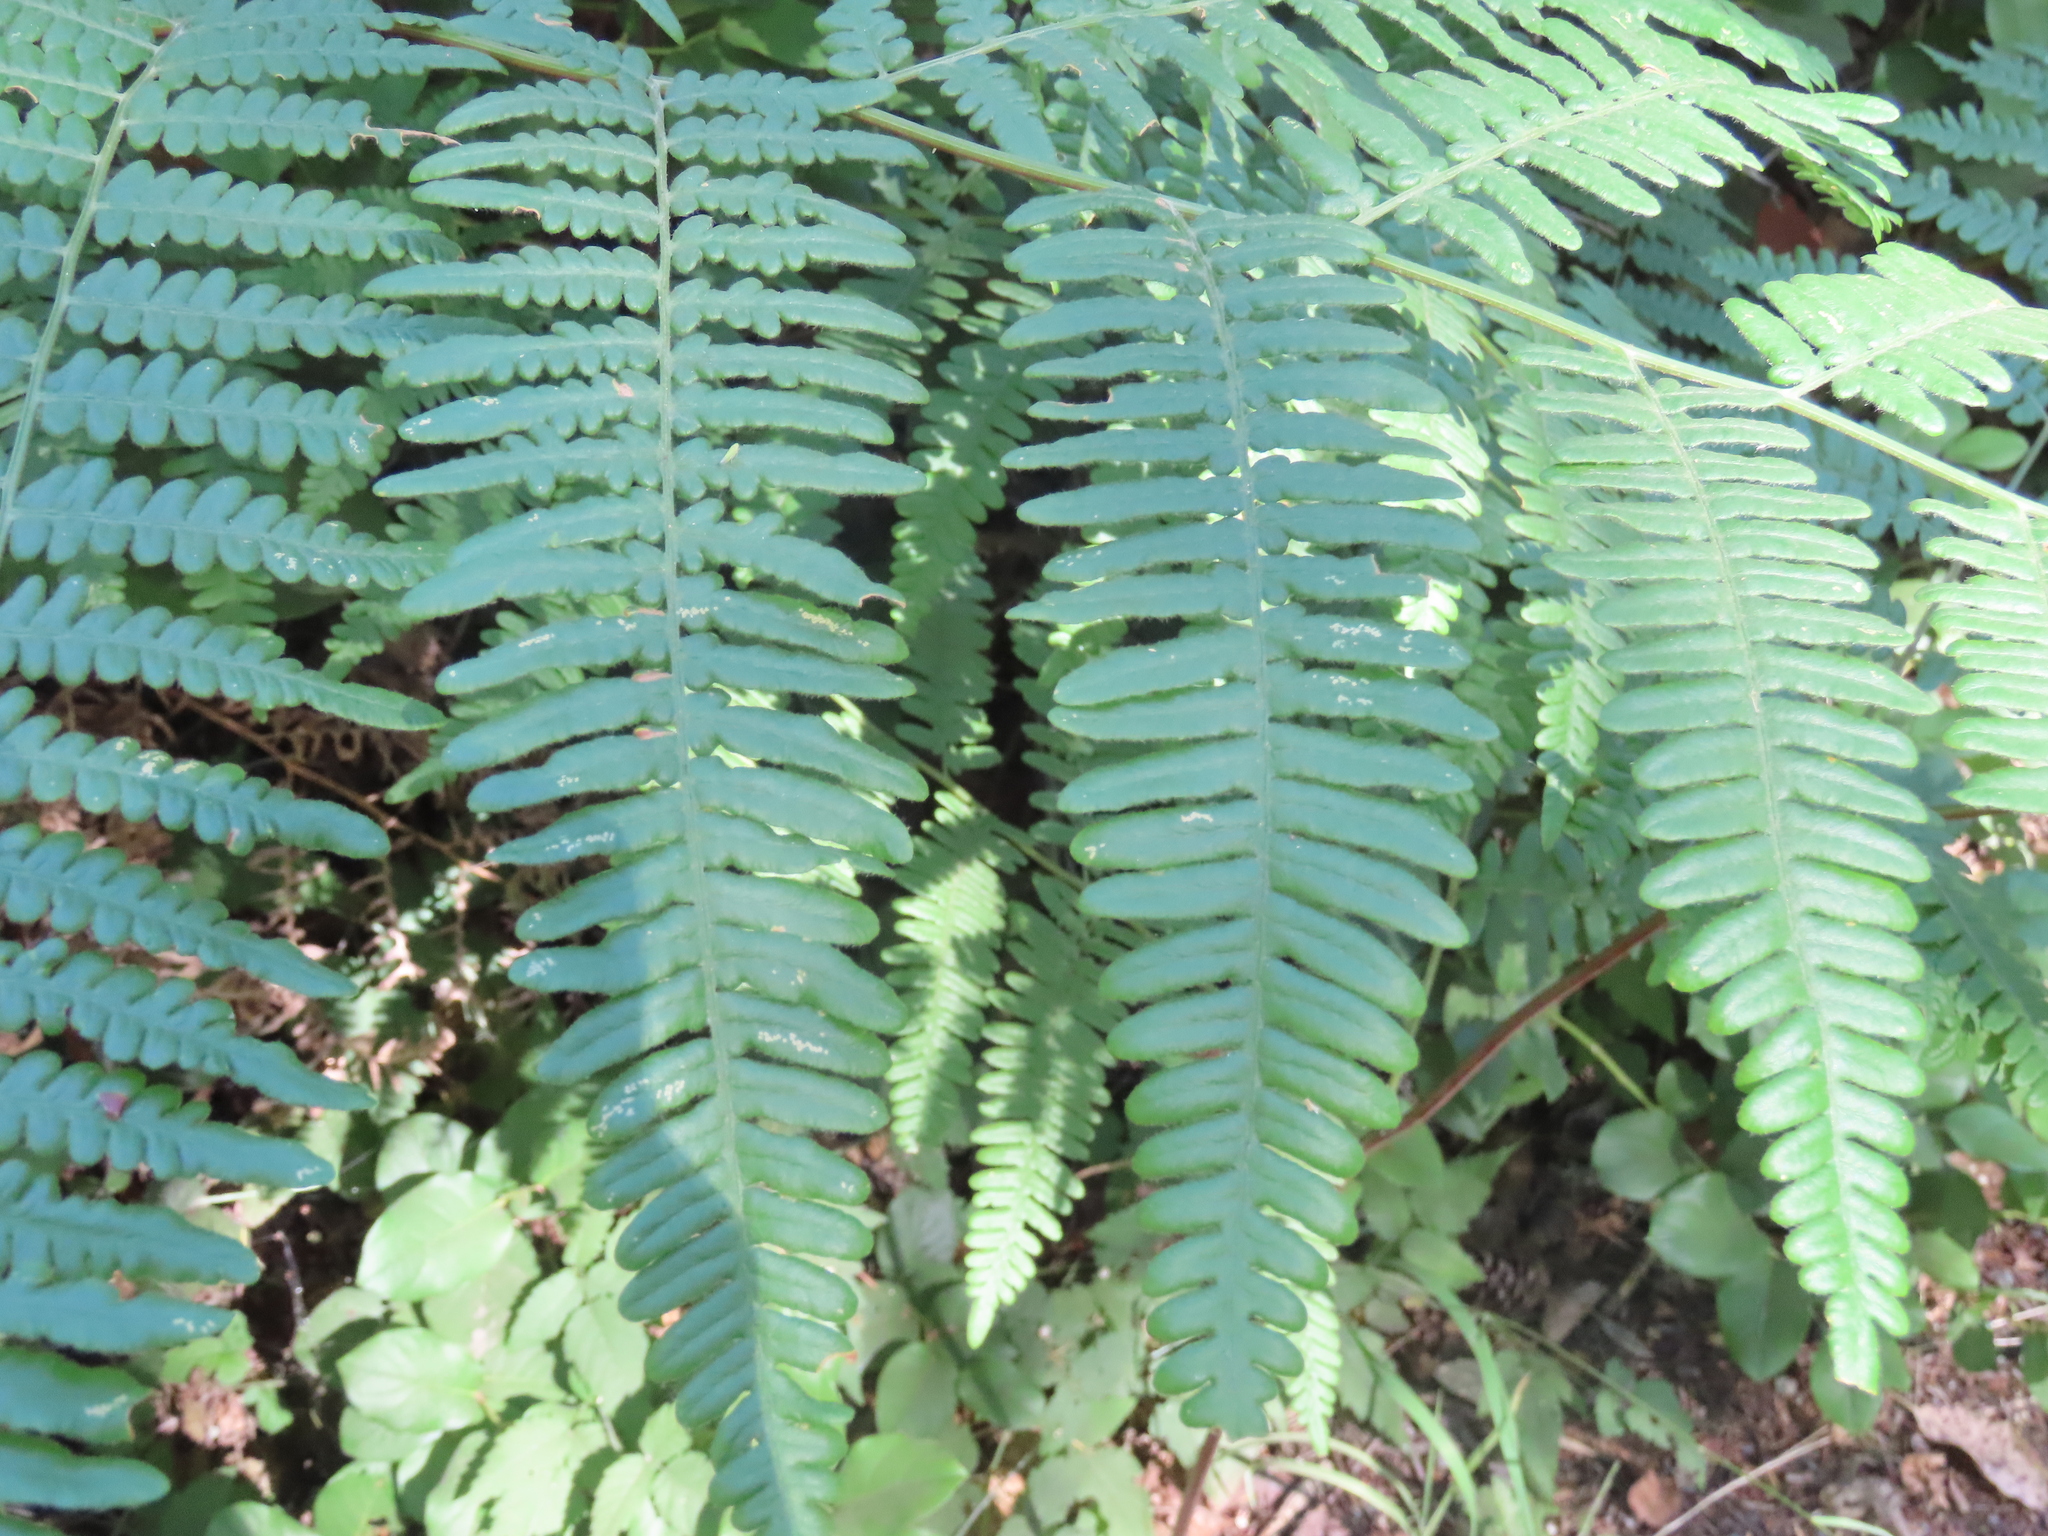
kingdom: Plantae
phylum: Tracheophyta
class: Polypodiopsida
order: Polypodiales
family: Dennstaedtiaceae
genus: Pteridium
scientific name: Pteridium aquilinum
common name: Bracken
